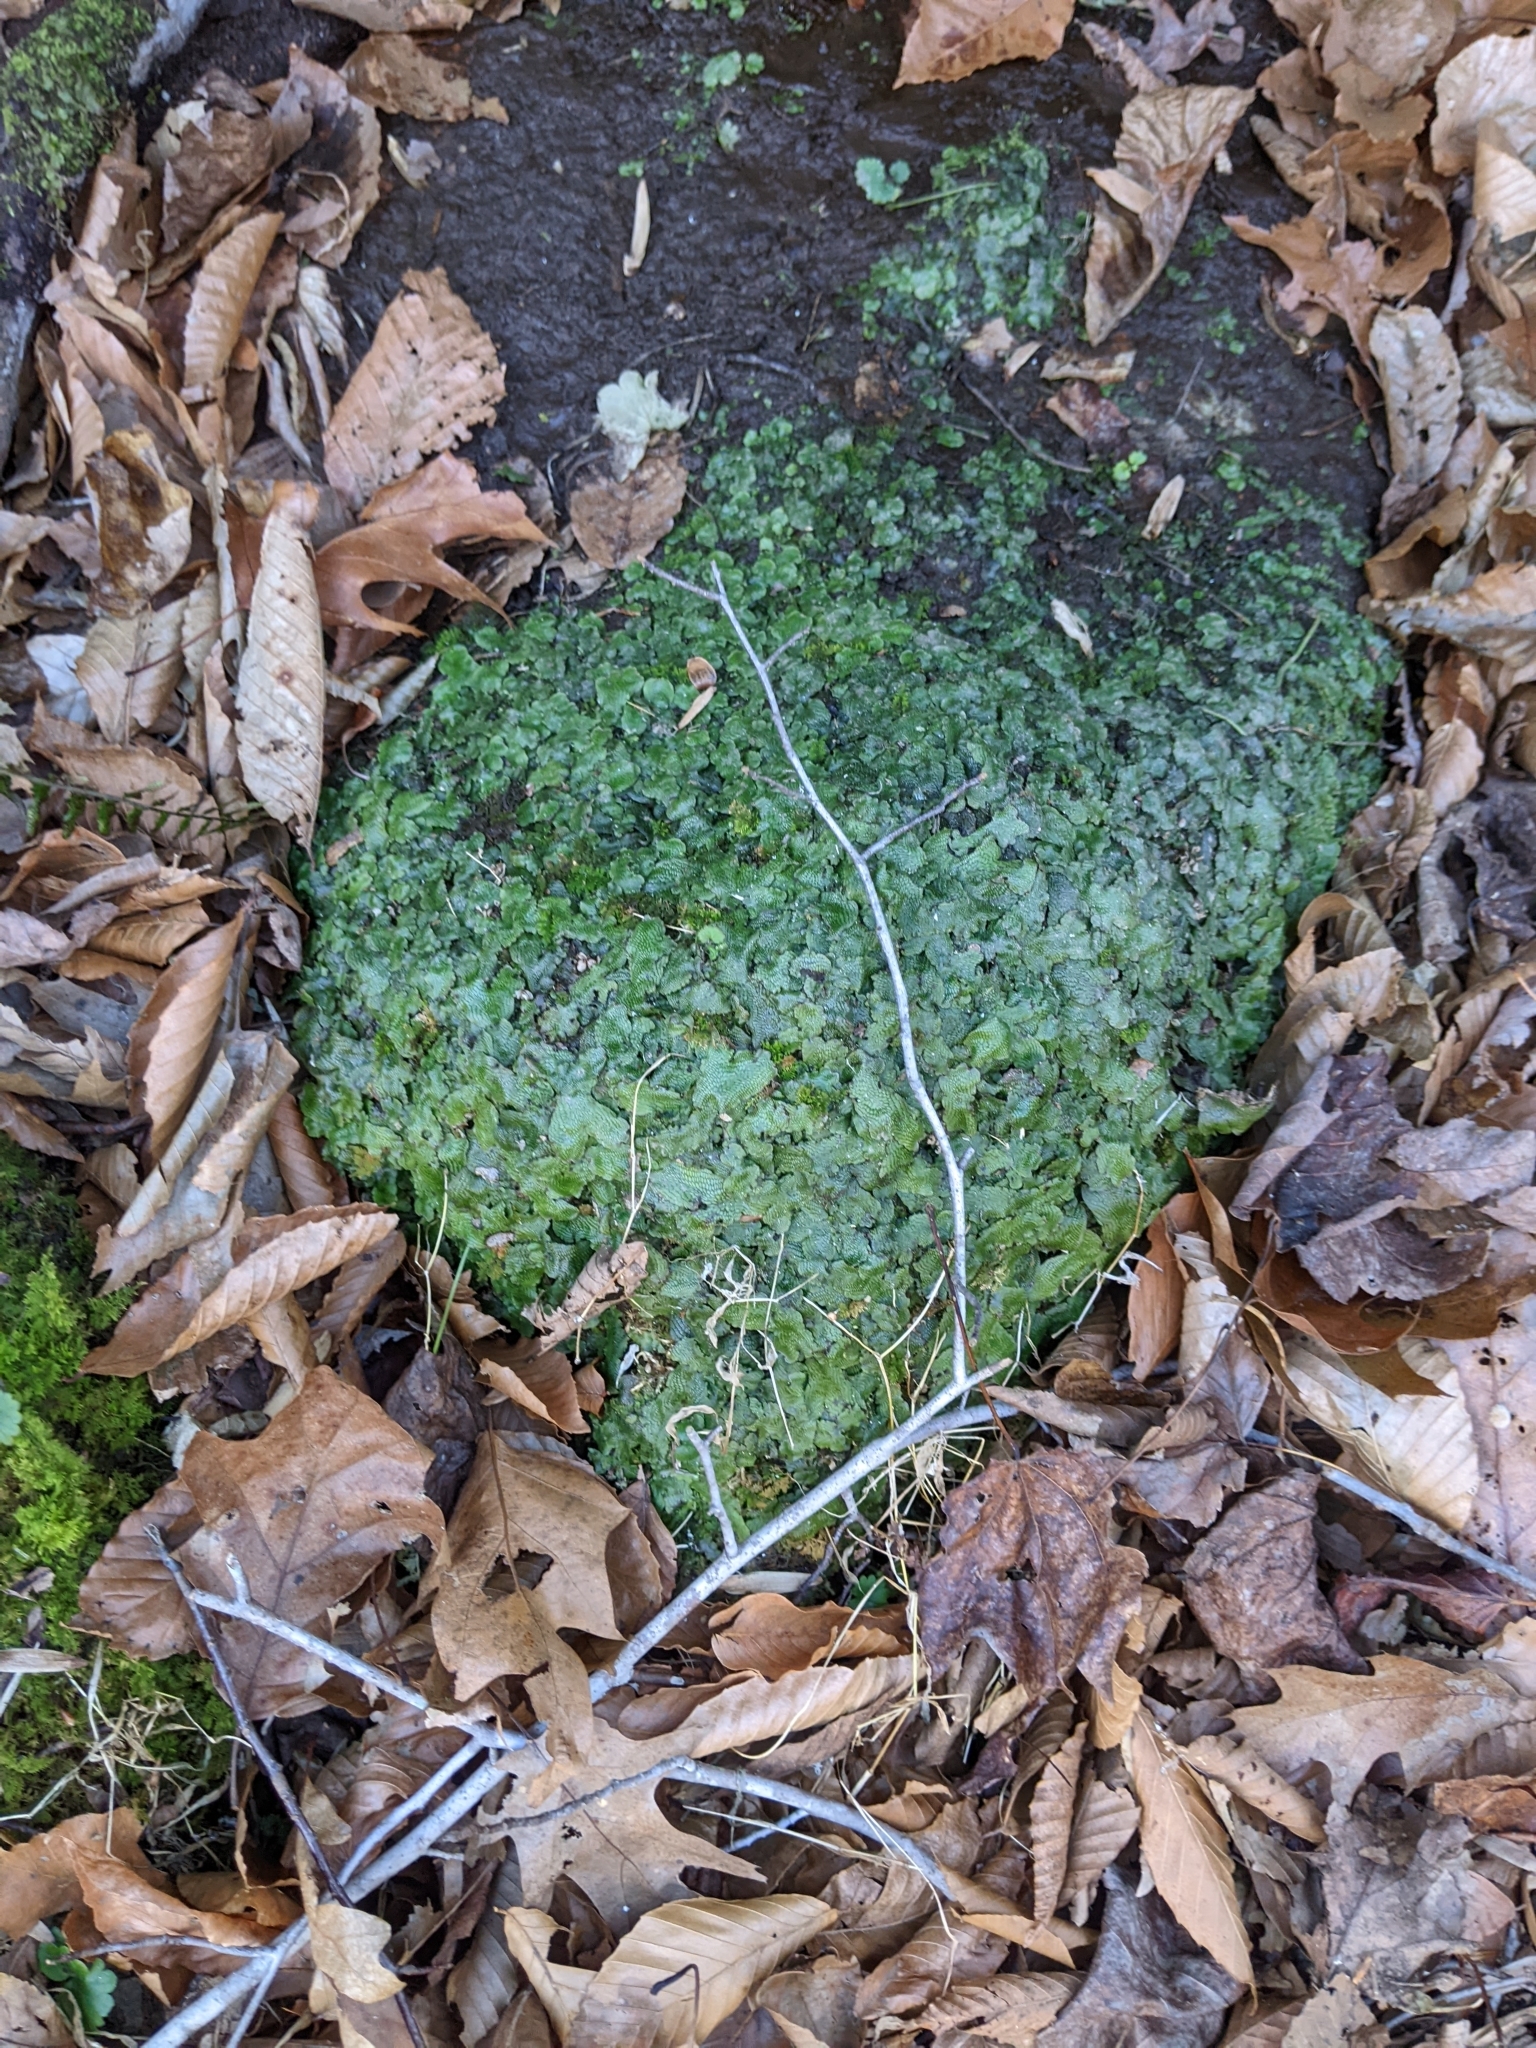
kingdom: Plantae
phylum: Marchantiophyta
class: Marchantiopsida
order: Marchantiales
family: Conocephalaceae
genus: Conocephalum
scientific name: Conocephalum salebrosum
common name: Cat-tongue liverwort
